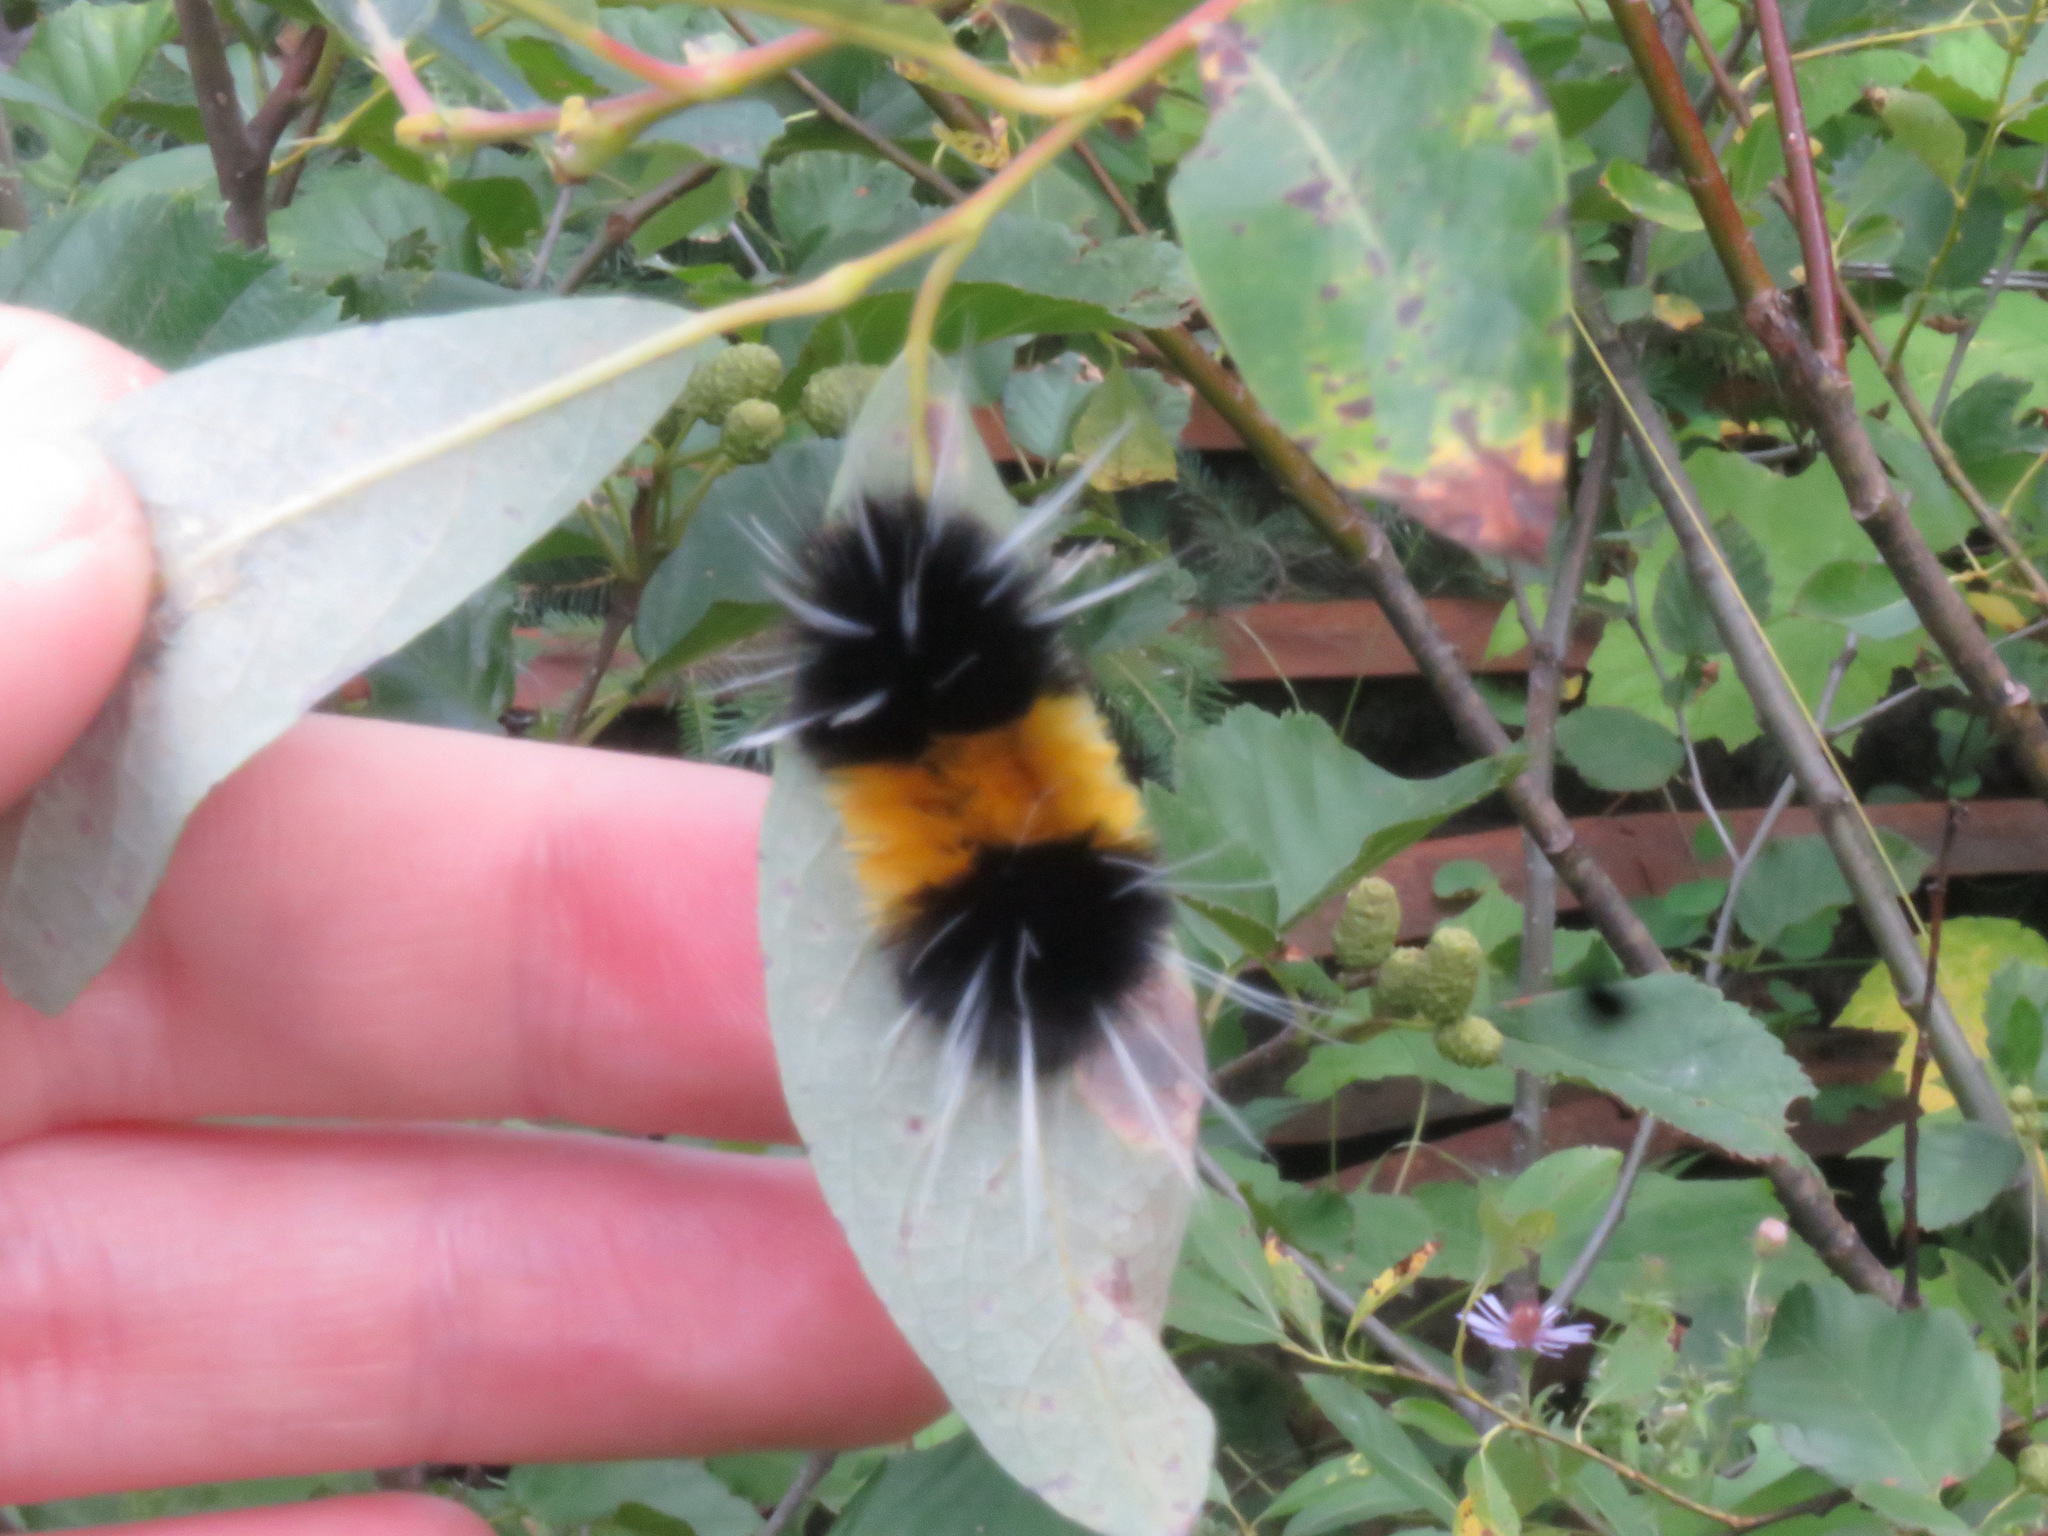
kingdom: Animalia
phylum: Arthropoda
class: Insecta
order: Lepidoptera
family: Erebidae
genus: Lophocampa
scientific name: Lophocampa maculata
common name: Spotted tussock moth
